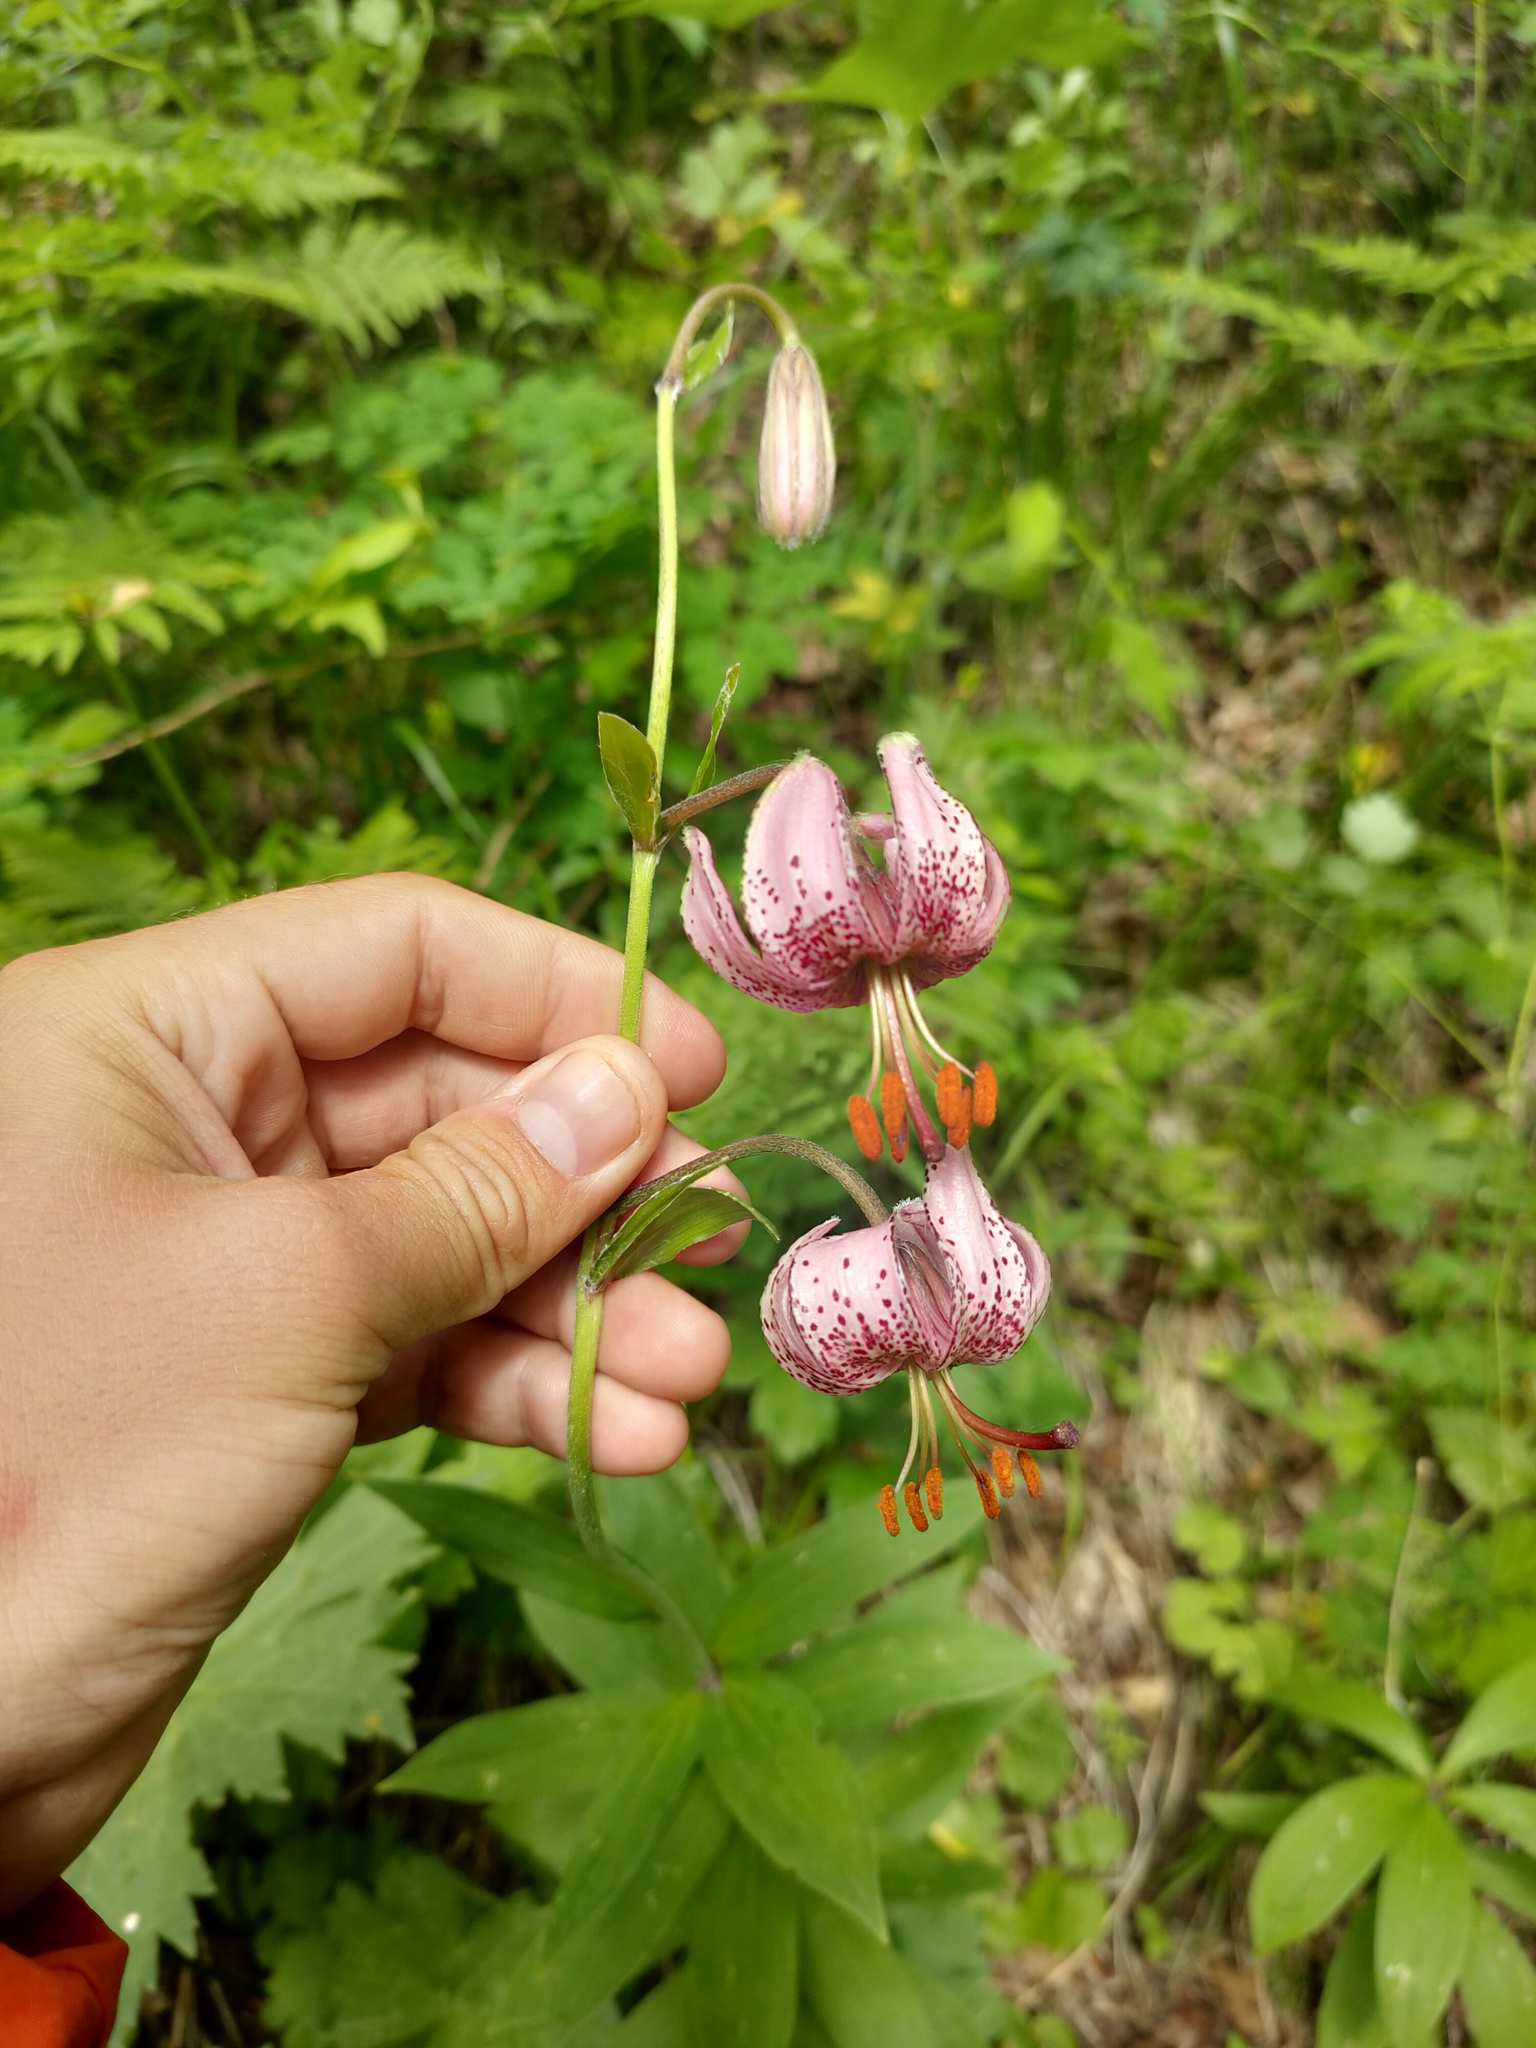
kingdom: Plantae
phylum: Tracheophyta
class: Liliopsida
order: Liliales
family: Liliaceae
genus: Lilium
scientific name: Lilium martagon
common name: Martagon lily
